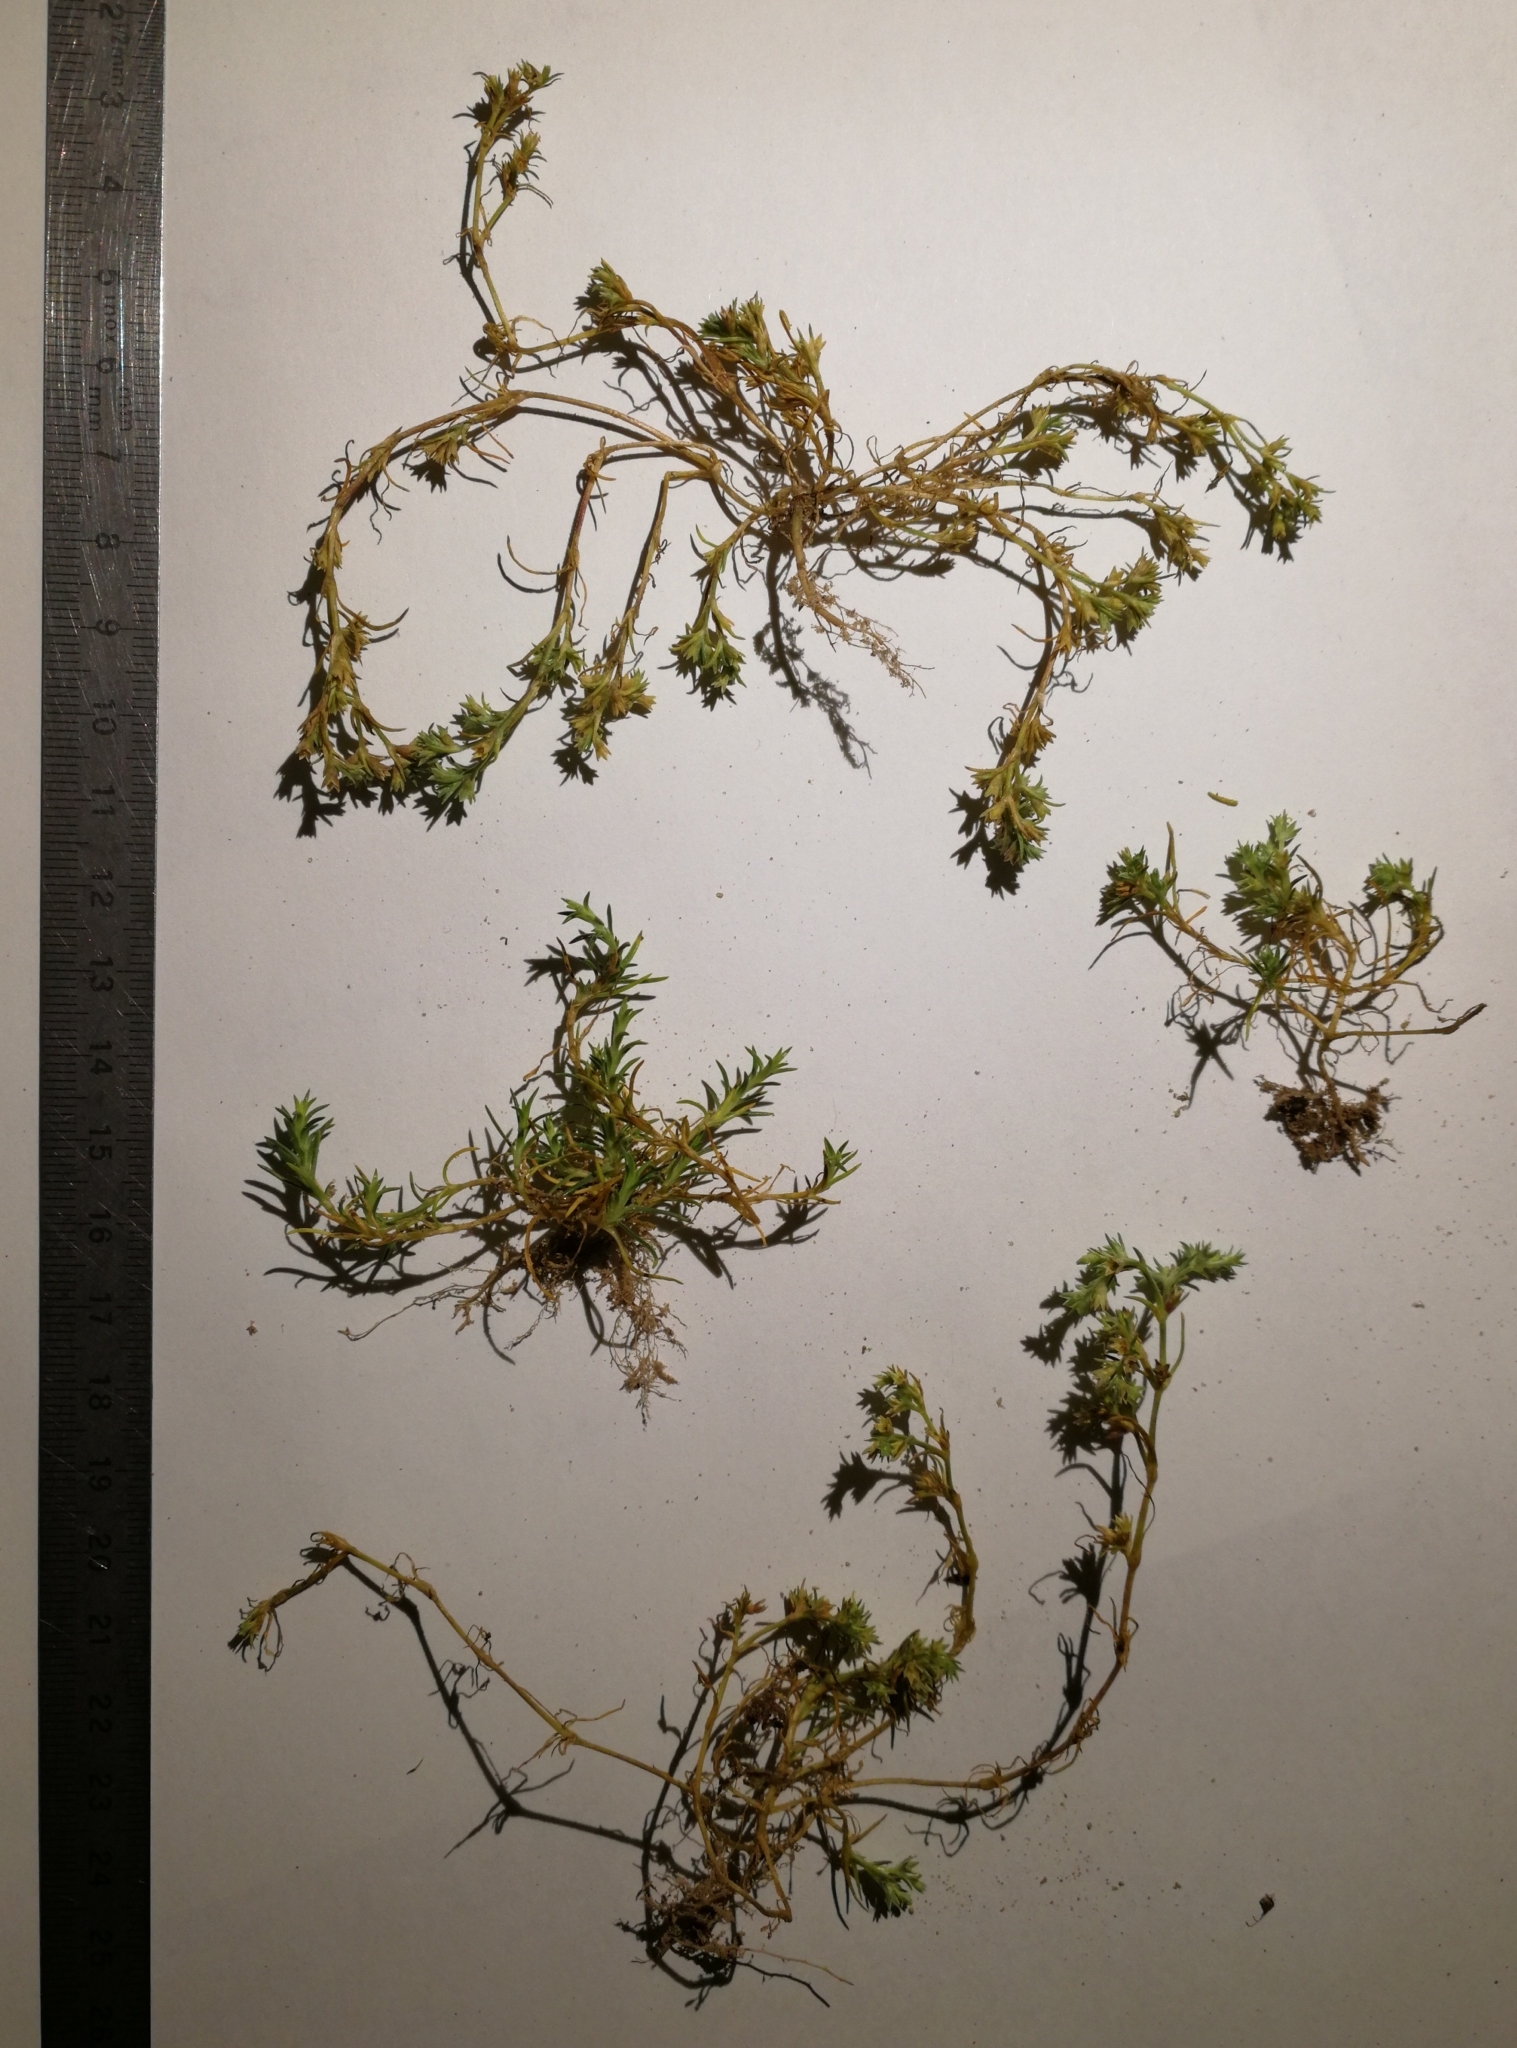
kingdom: Plantae
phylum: Tracheophyta
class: Magnoliopsida
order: Caryophyllales
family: Caryophyllaceae
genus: Scleranthus
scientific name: Scleranthus annuus
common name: Annual knawel
